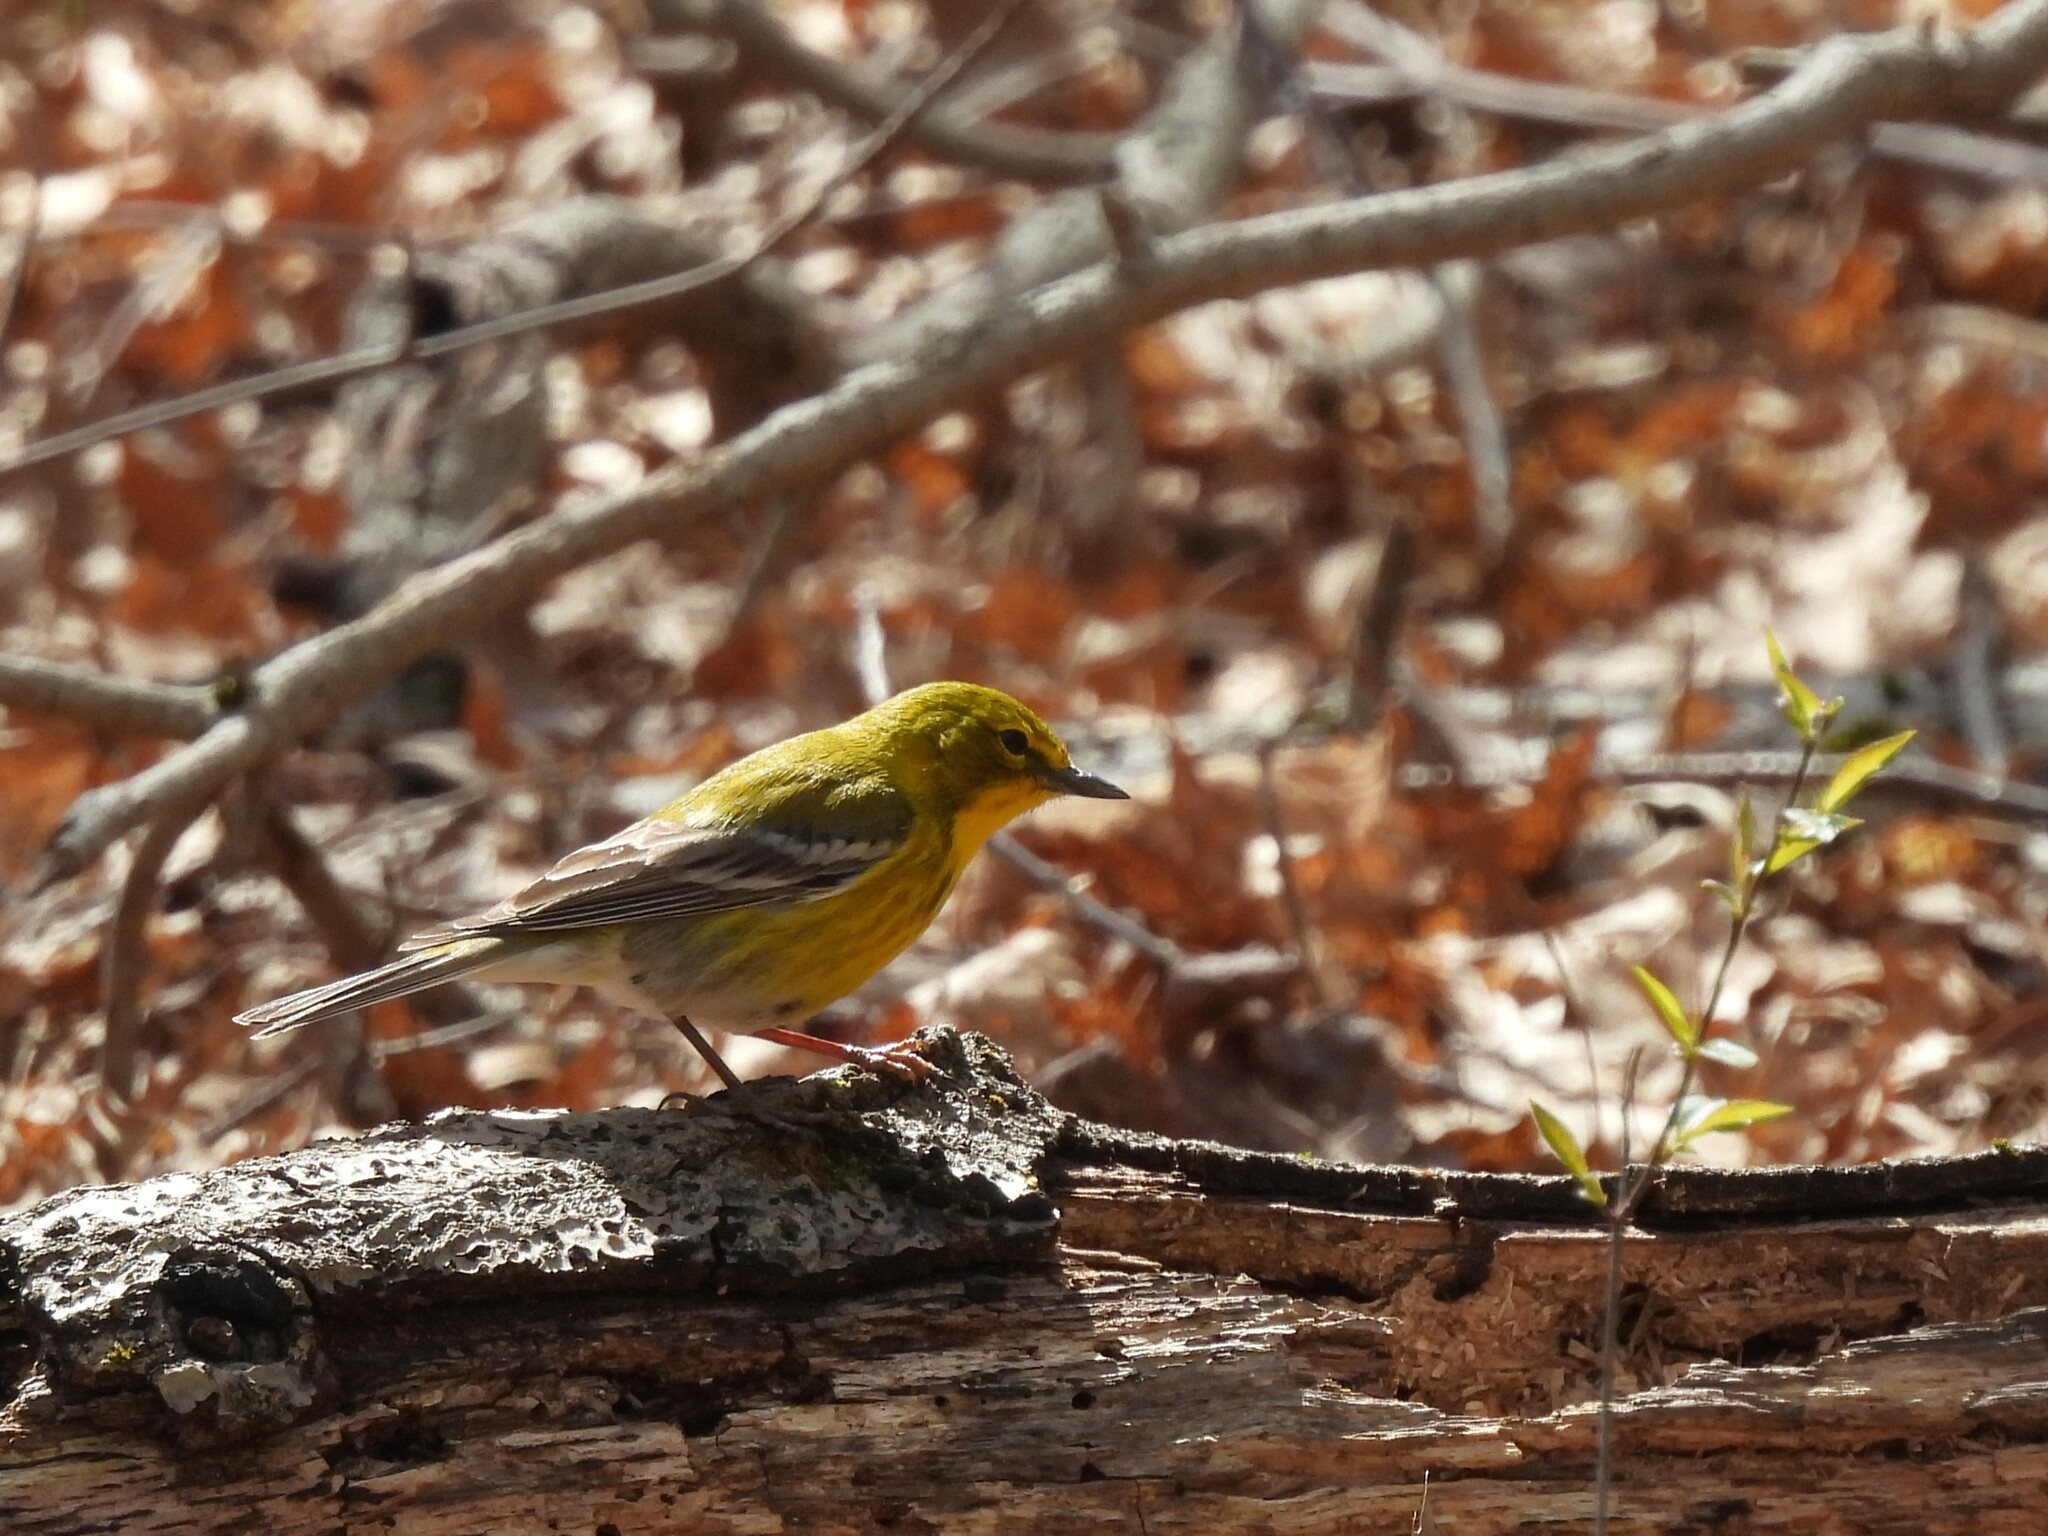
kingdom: Animalia
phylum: Chordata
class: Aves
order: Passeriformes
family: Parulidae
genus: Setophaga
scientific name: Setophaga pinus
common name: Pine warbler
